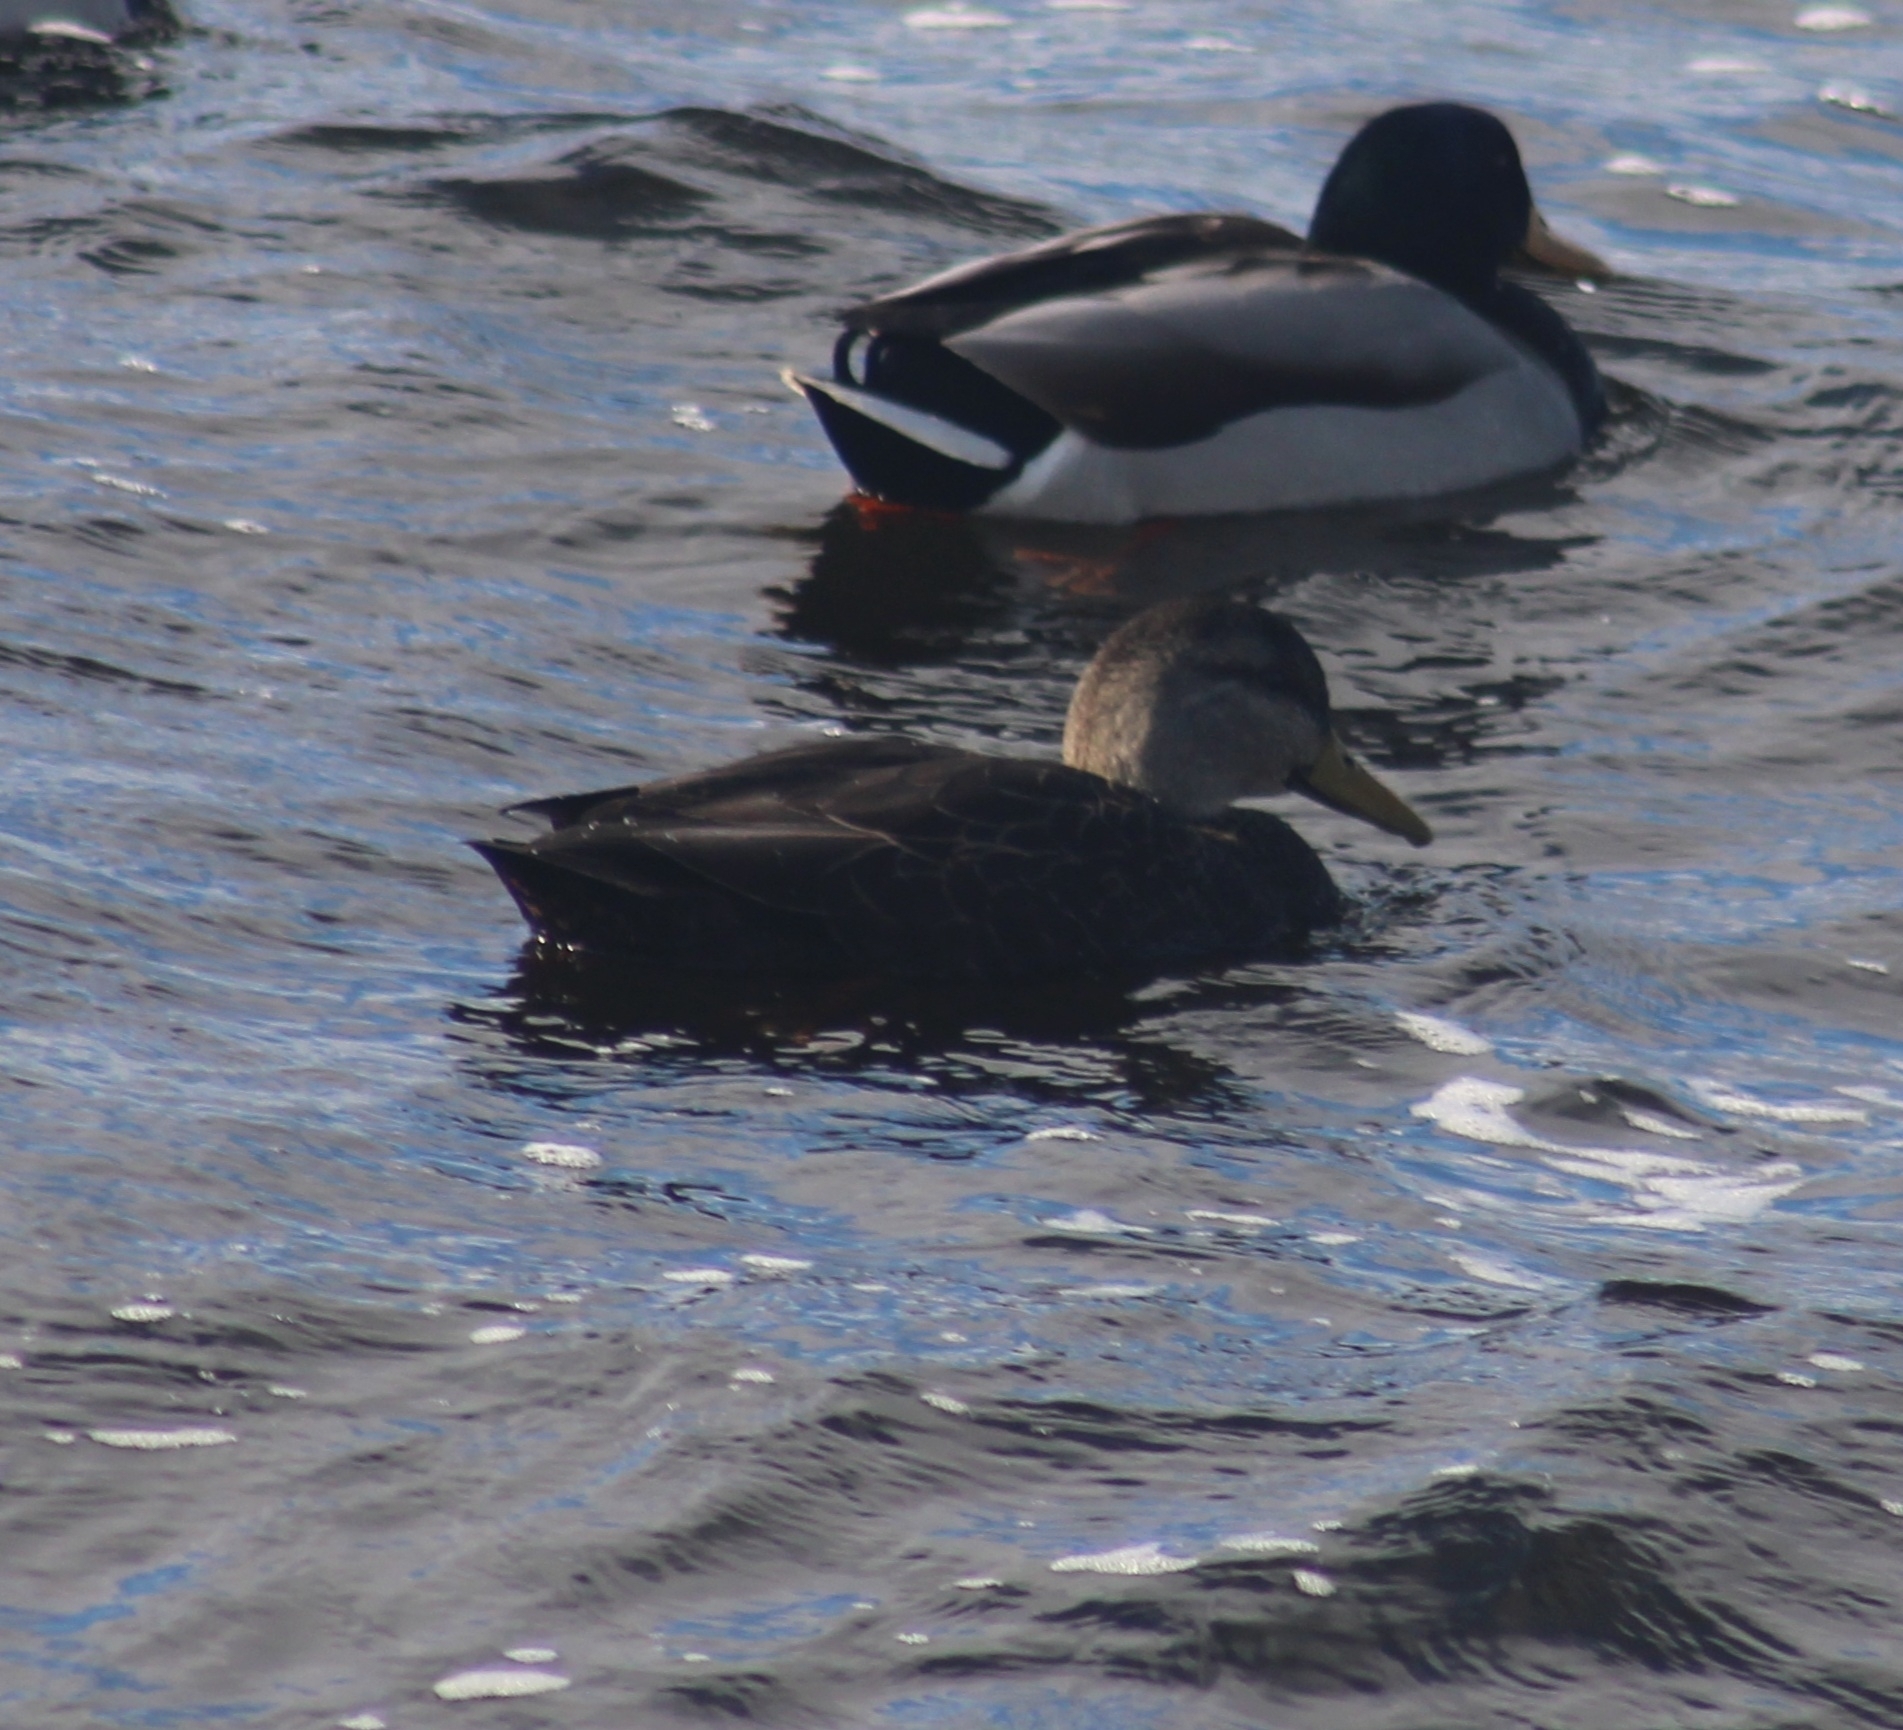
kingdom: Animalia
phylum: Chordata
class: Aves
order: Anseriformes
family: Anatidae
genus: Anas
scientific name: Anas rubripes
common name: American black duck
